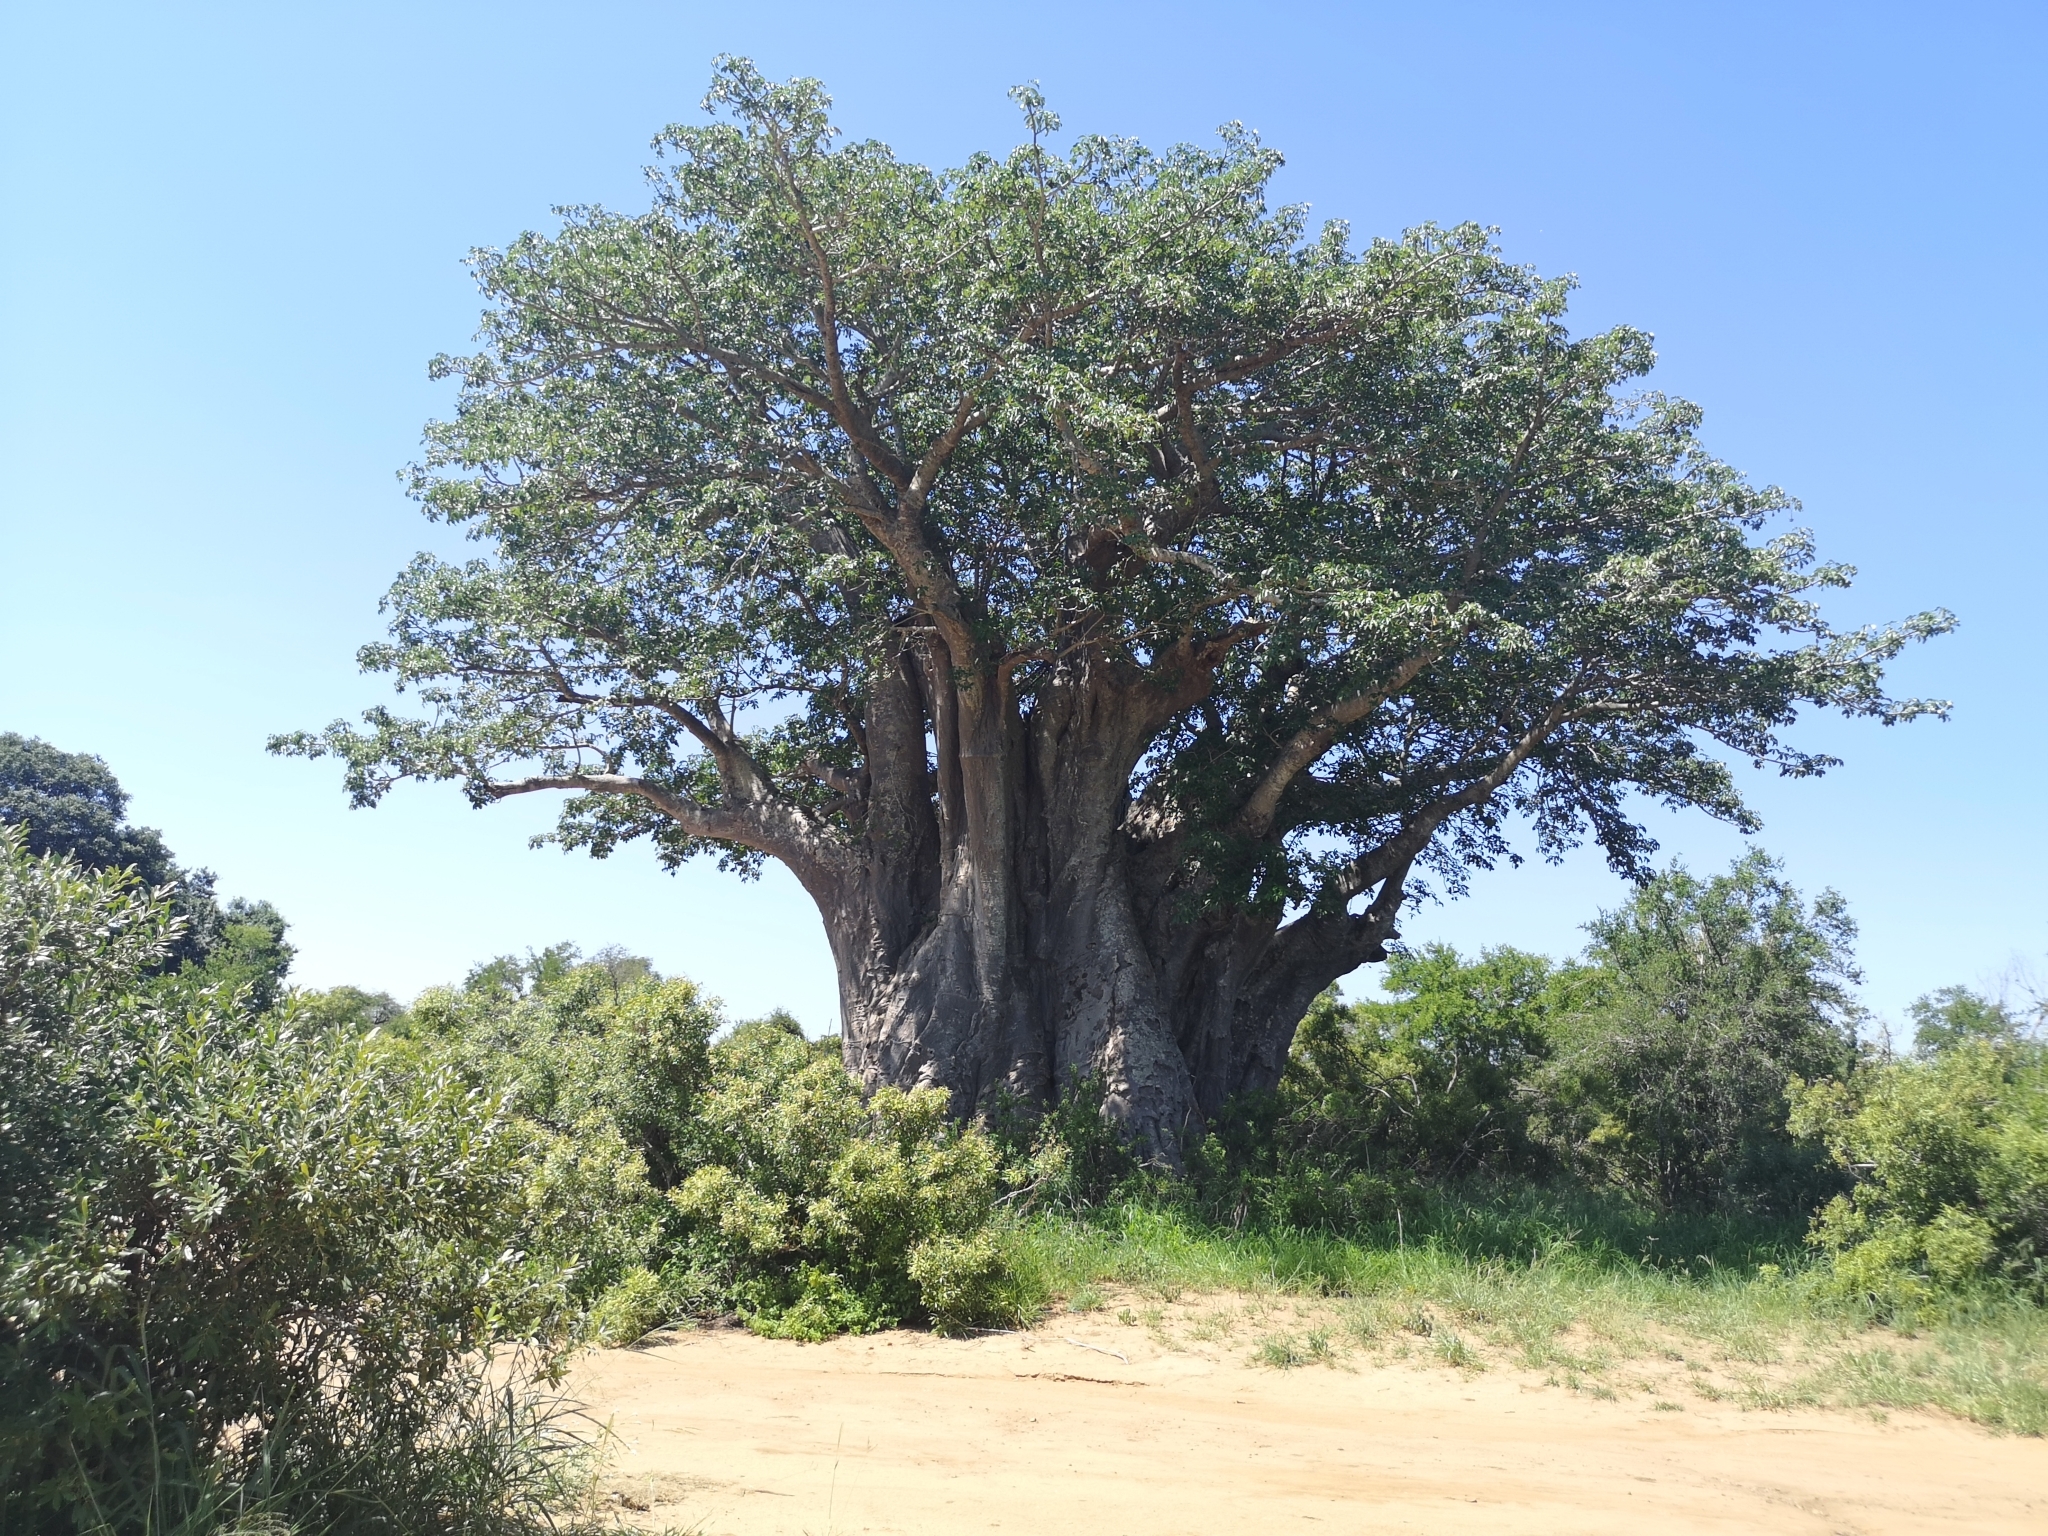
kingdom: Plantae
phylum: Tracheophyta
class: Magnoliopsida
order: Malvales
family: Malvaceae
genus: Adansonia
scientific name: Adansonia digitata
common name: Dead-rat-tree
